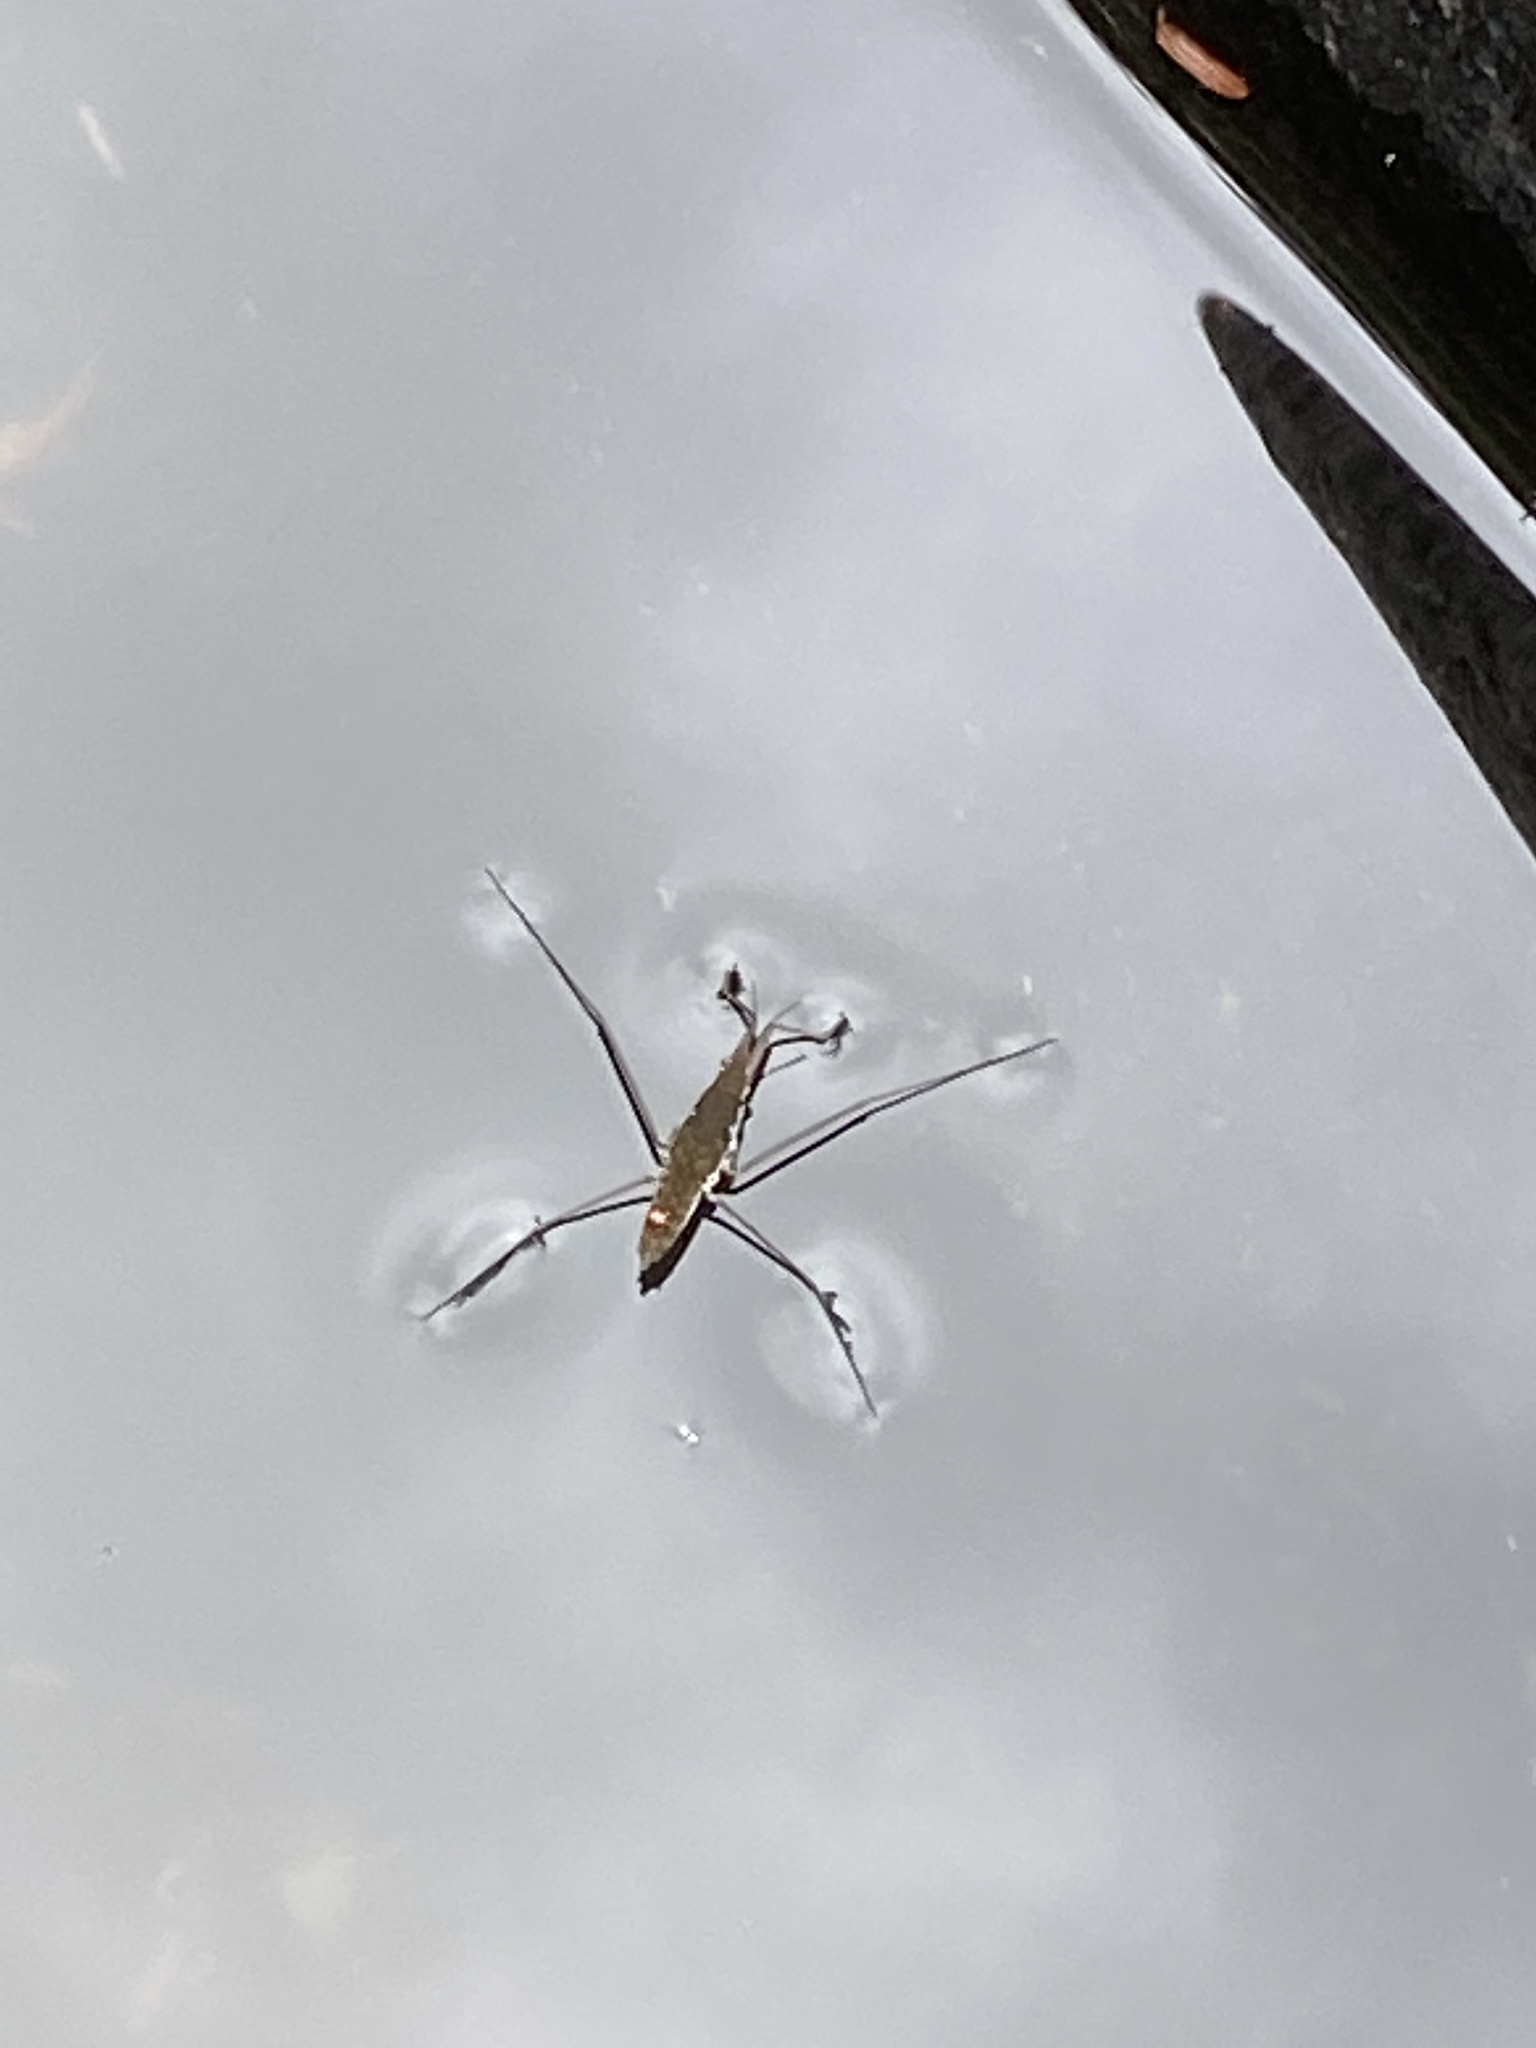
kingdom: Animalia
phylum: Arthropoda
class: Insecta
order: Hemiptera
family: Gerridae
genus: Aquarius
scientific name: Aquarius remigis
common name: Common water strider
